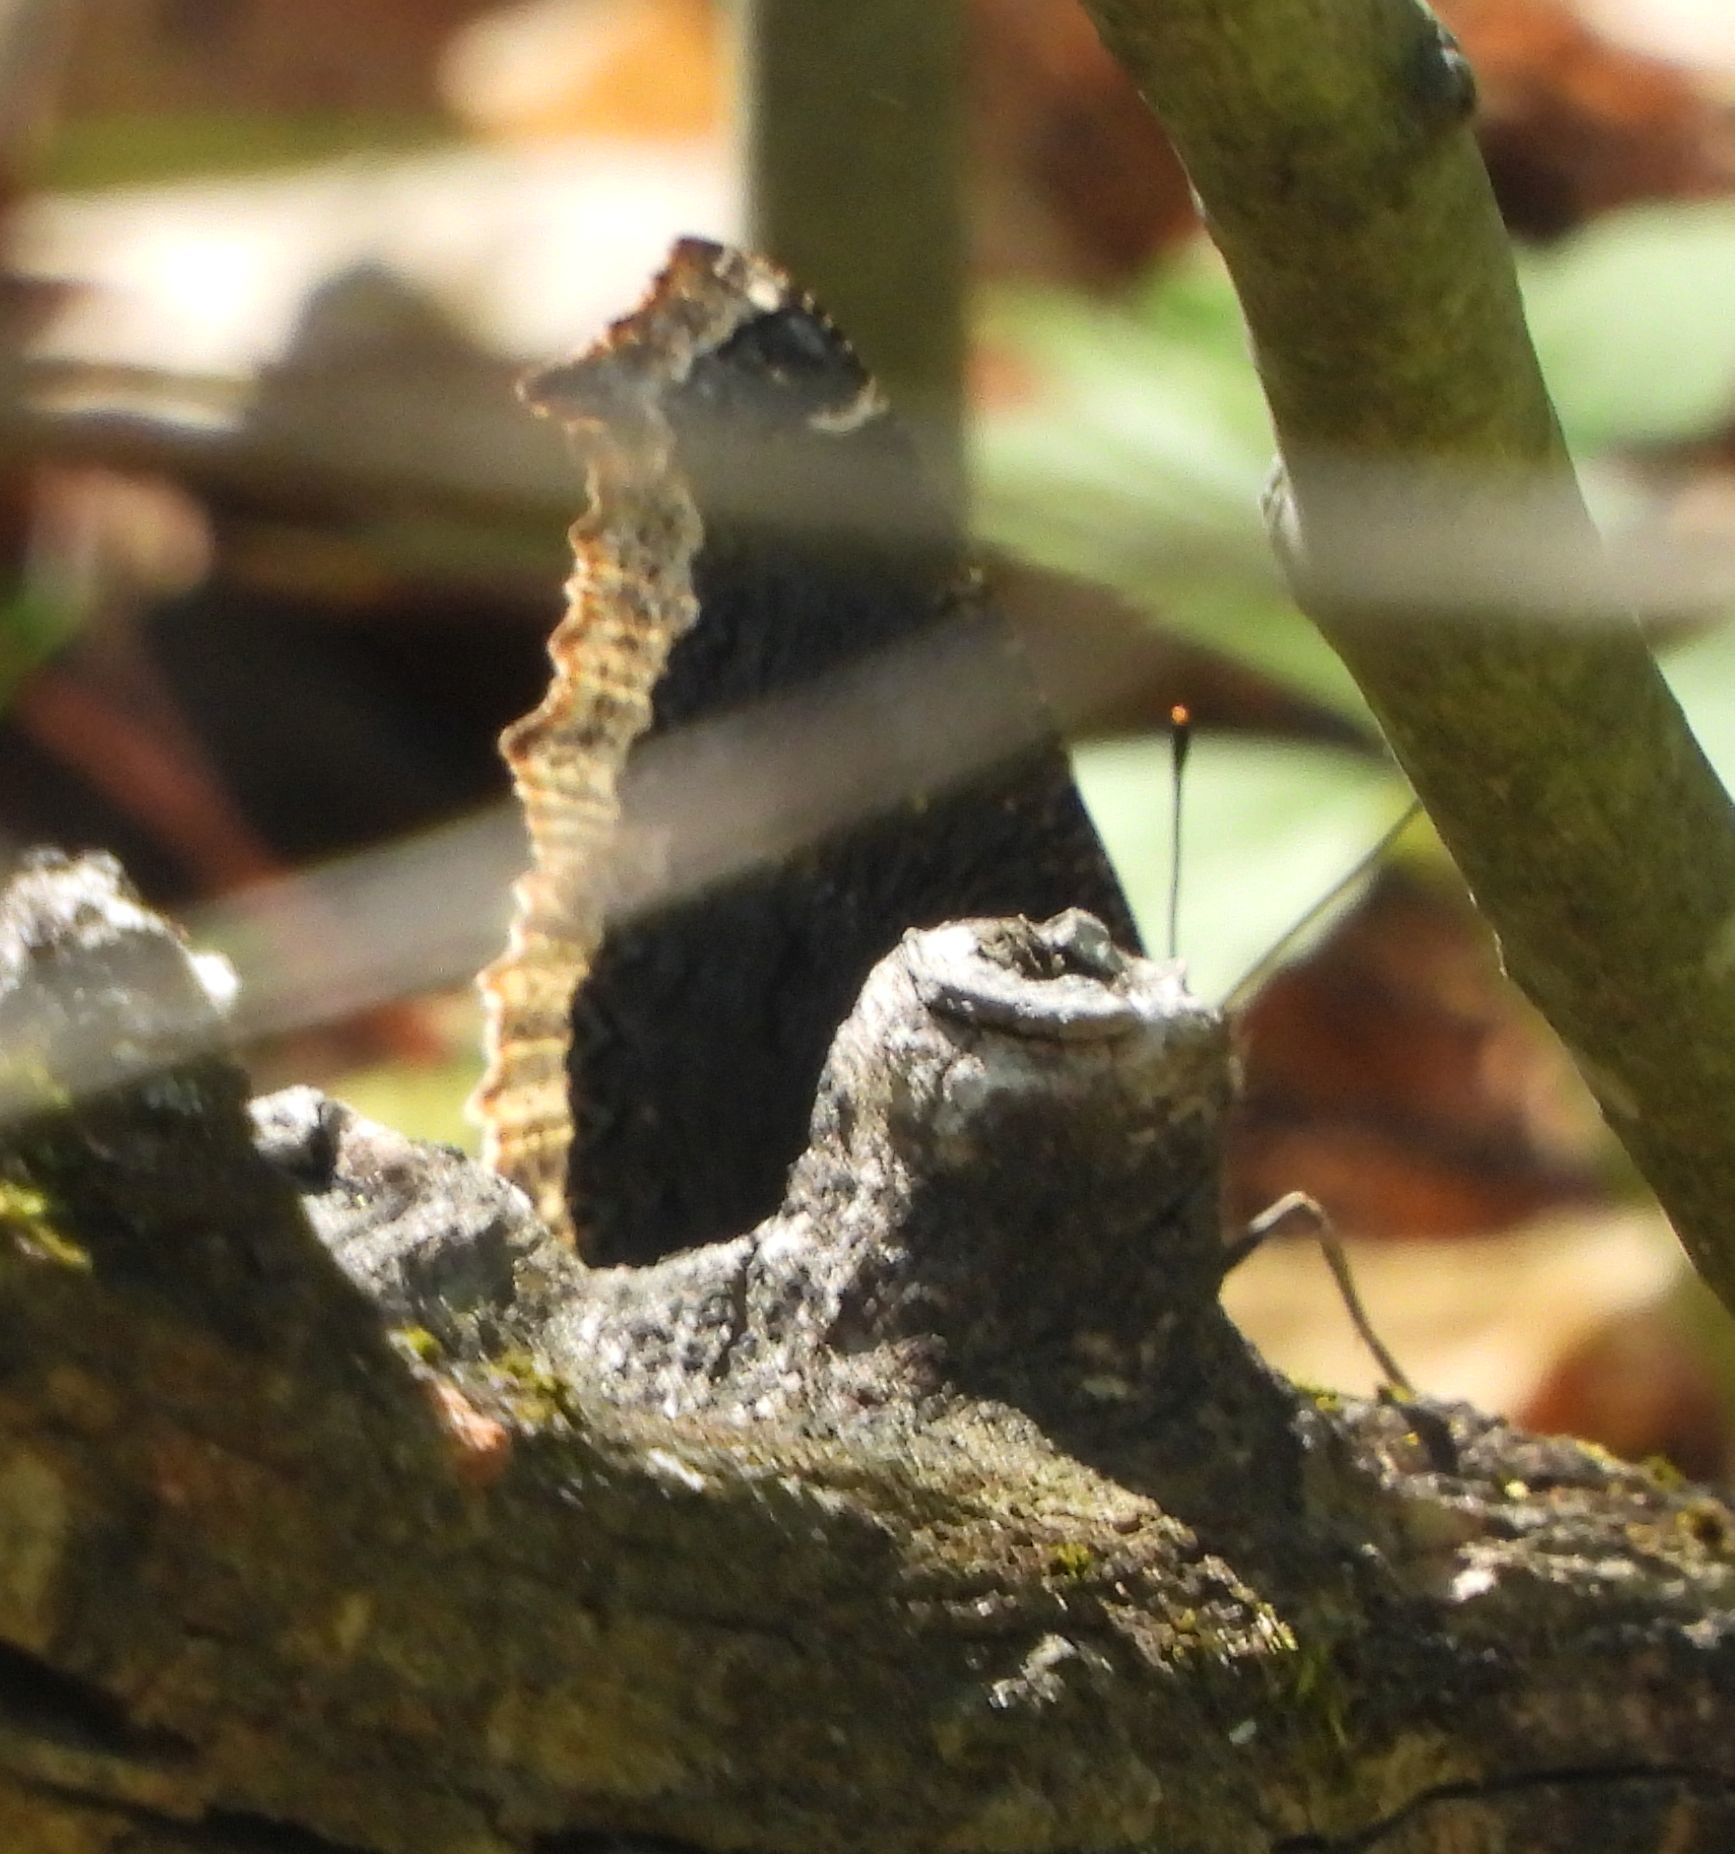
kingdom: Animalia
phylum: Arthropoda
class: Insecta
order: Lepidoptera
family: Nymphalidae
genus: Nymphalis
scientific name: Nymphalis antiopa
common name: Camberwell beauty
